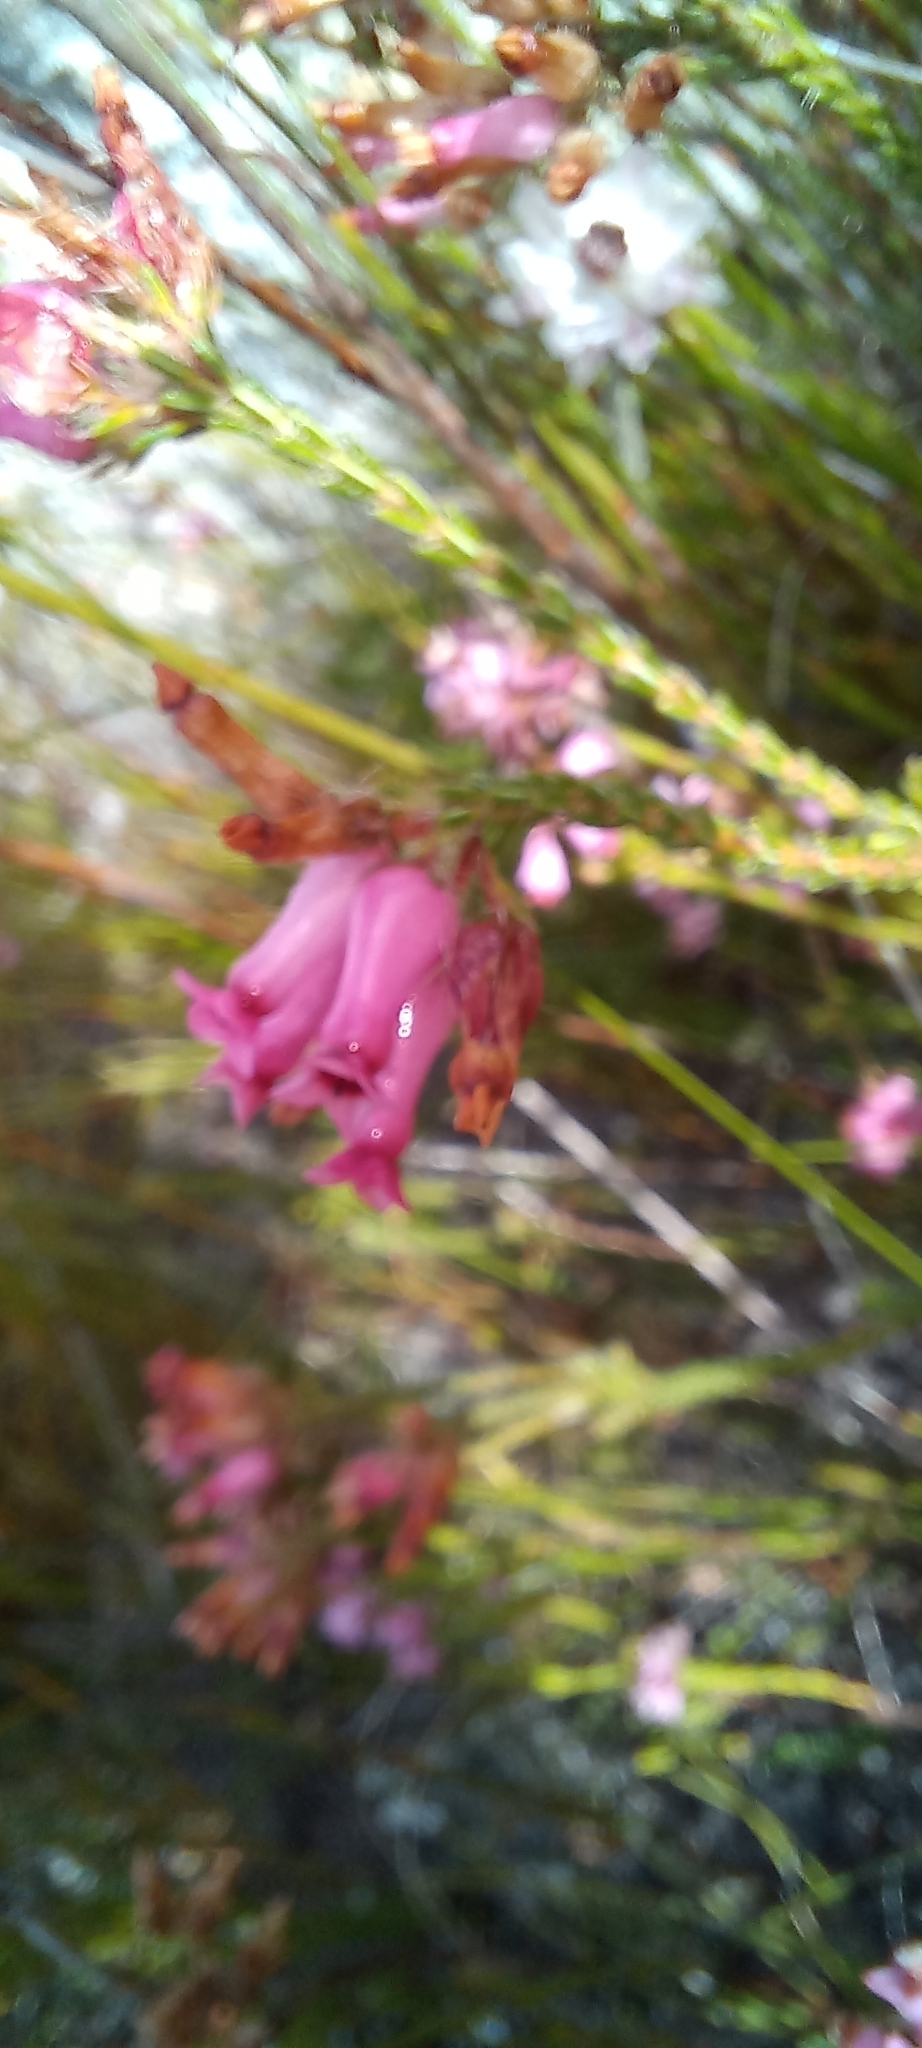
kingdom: Plantae
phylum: Tracheophyta
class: Magnoliopsida
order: Ericales
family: Ericaceae
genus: Erica
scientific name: Erica gysbertii
